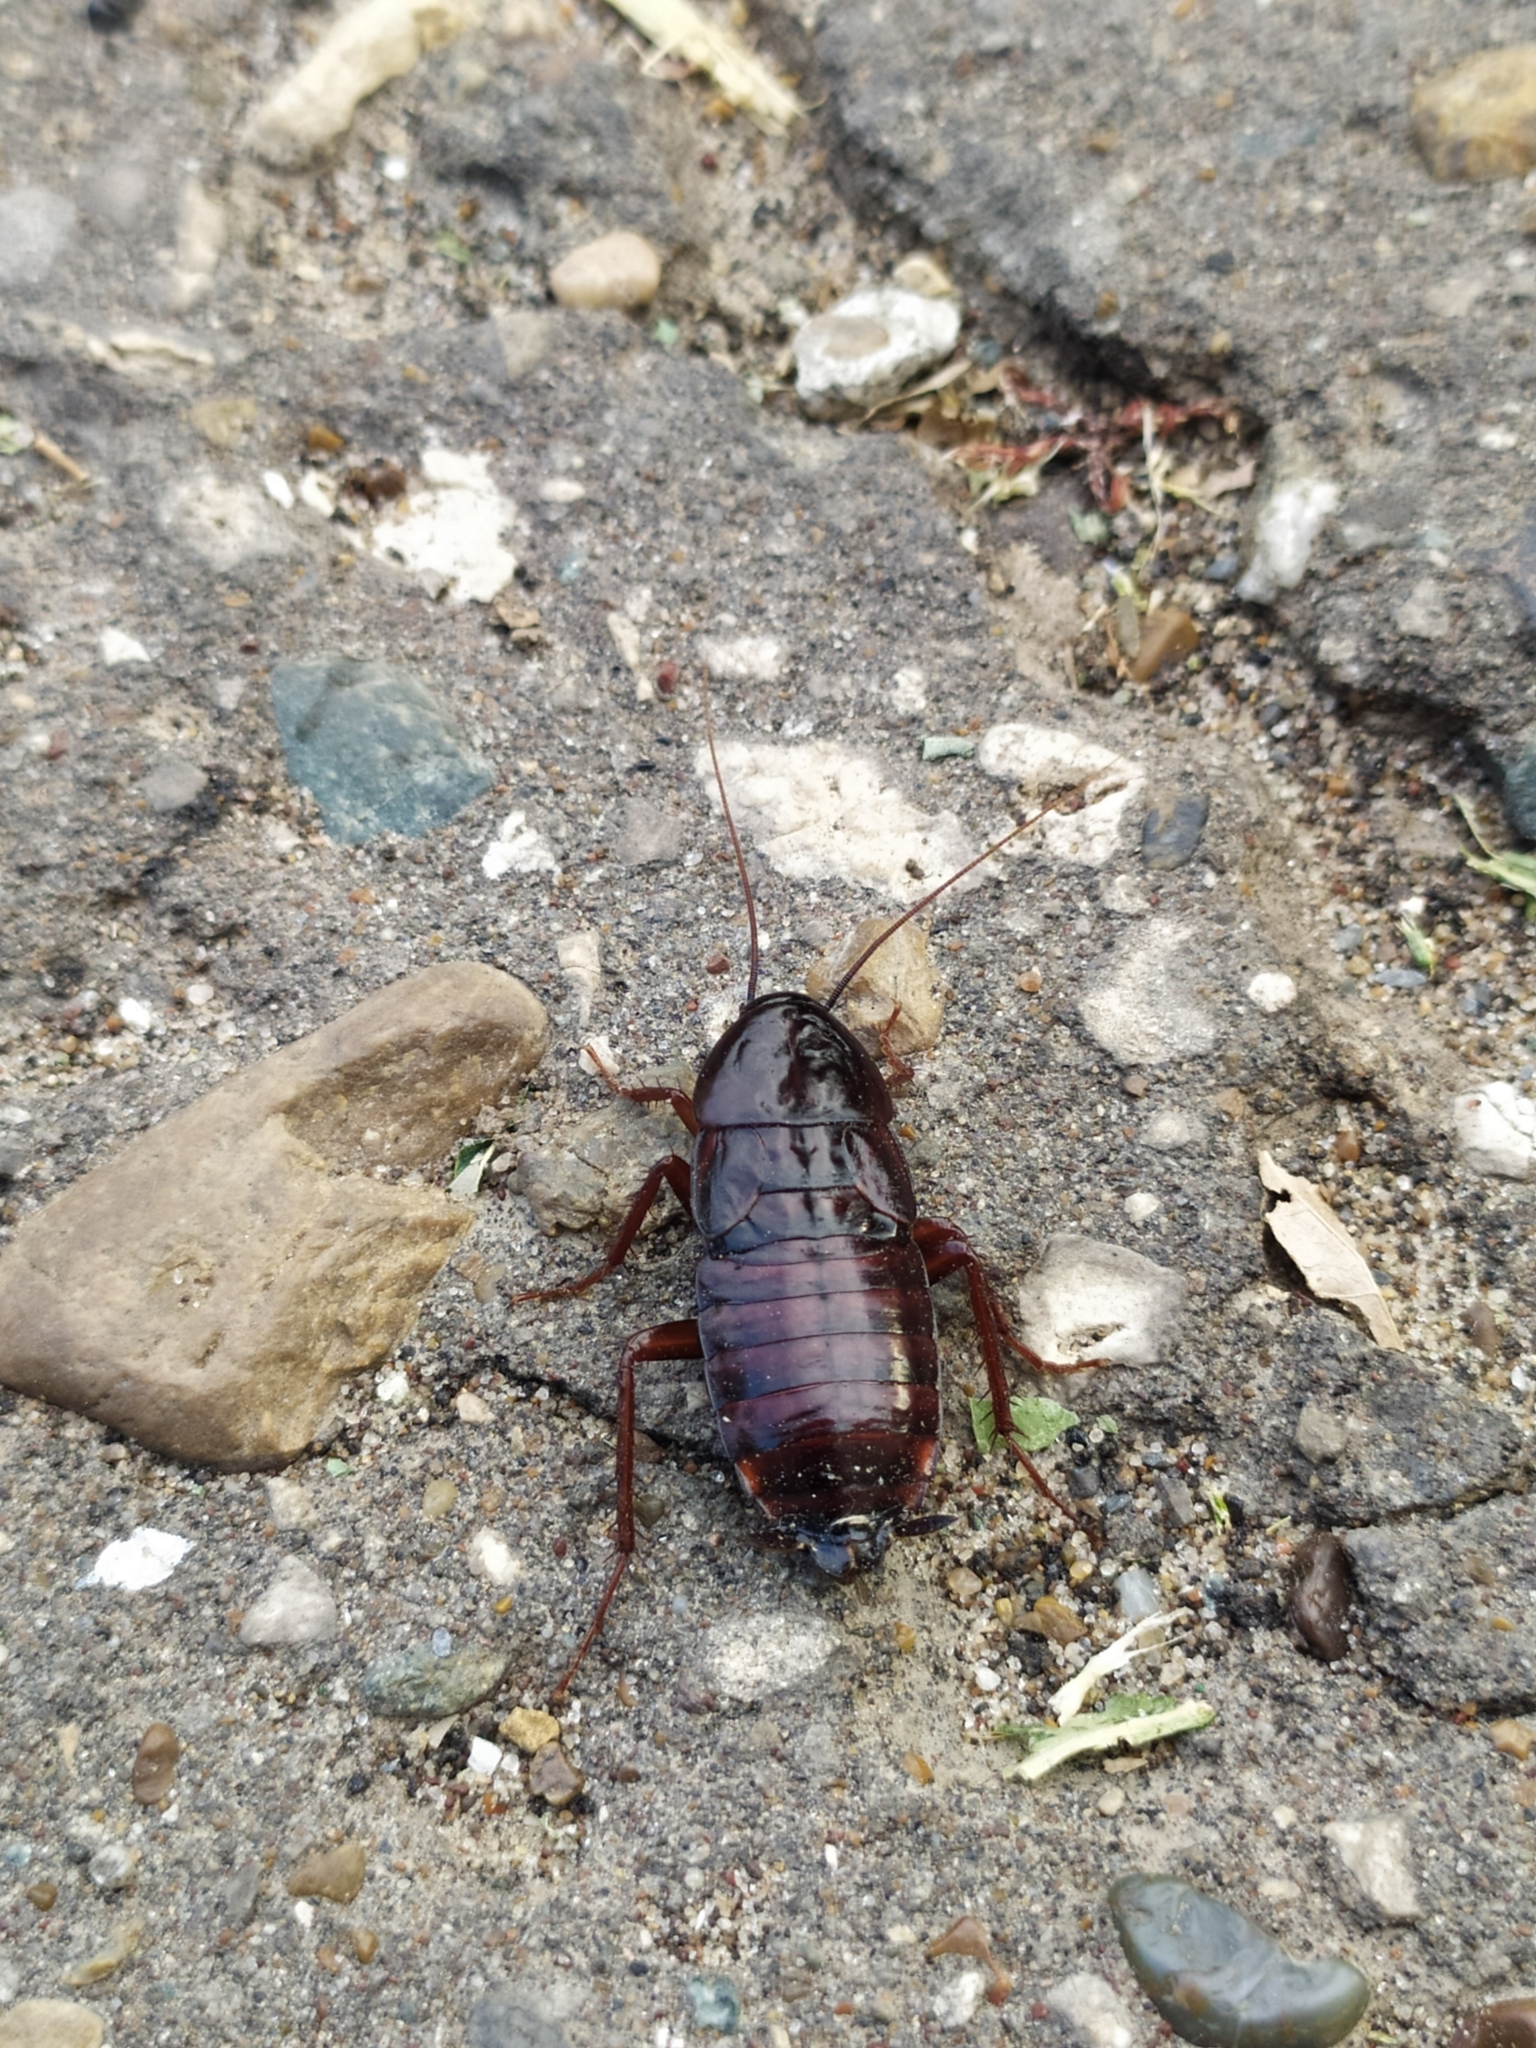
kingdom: Animalia
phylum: Arthropoda
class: Insecta
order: Blattodea
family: Blattidae
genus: Blatta
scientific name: Blatta orientalis
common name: Oriental cockroach
